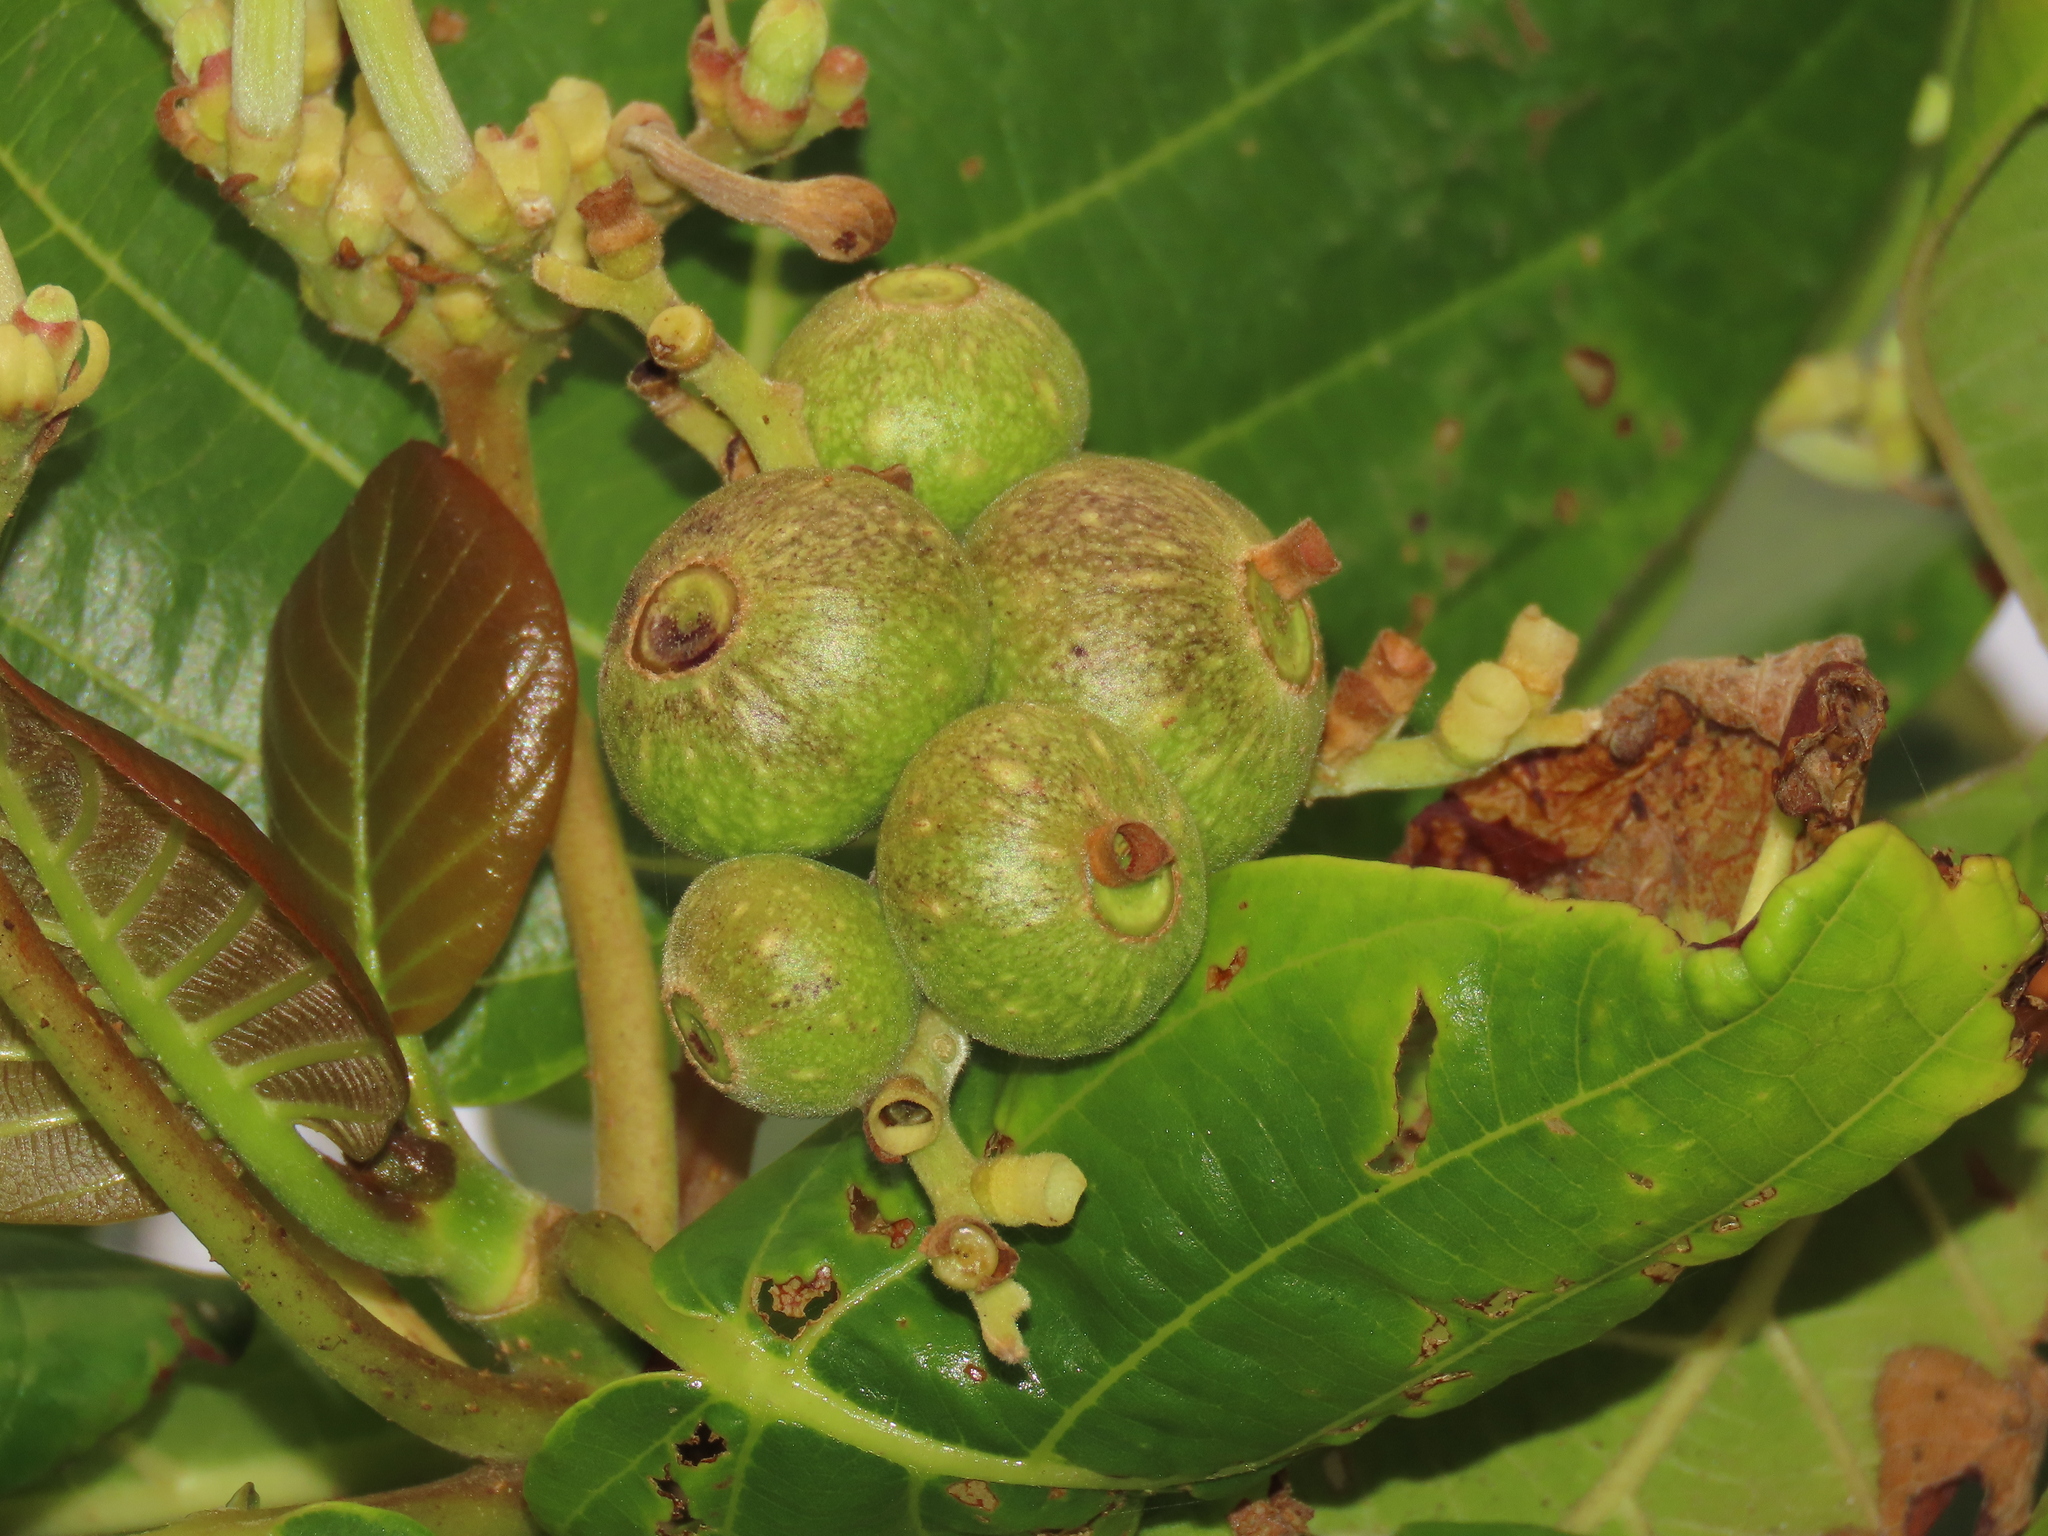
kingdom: Plantae
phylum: Tracheophyta
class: Magnoliopsida
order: Gentianales
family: Rubiaceae
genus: Guettarda
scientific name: Guettarda speciosa
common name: Sea randa
